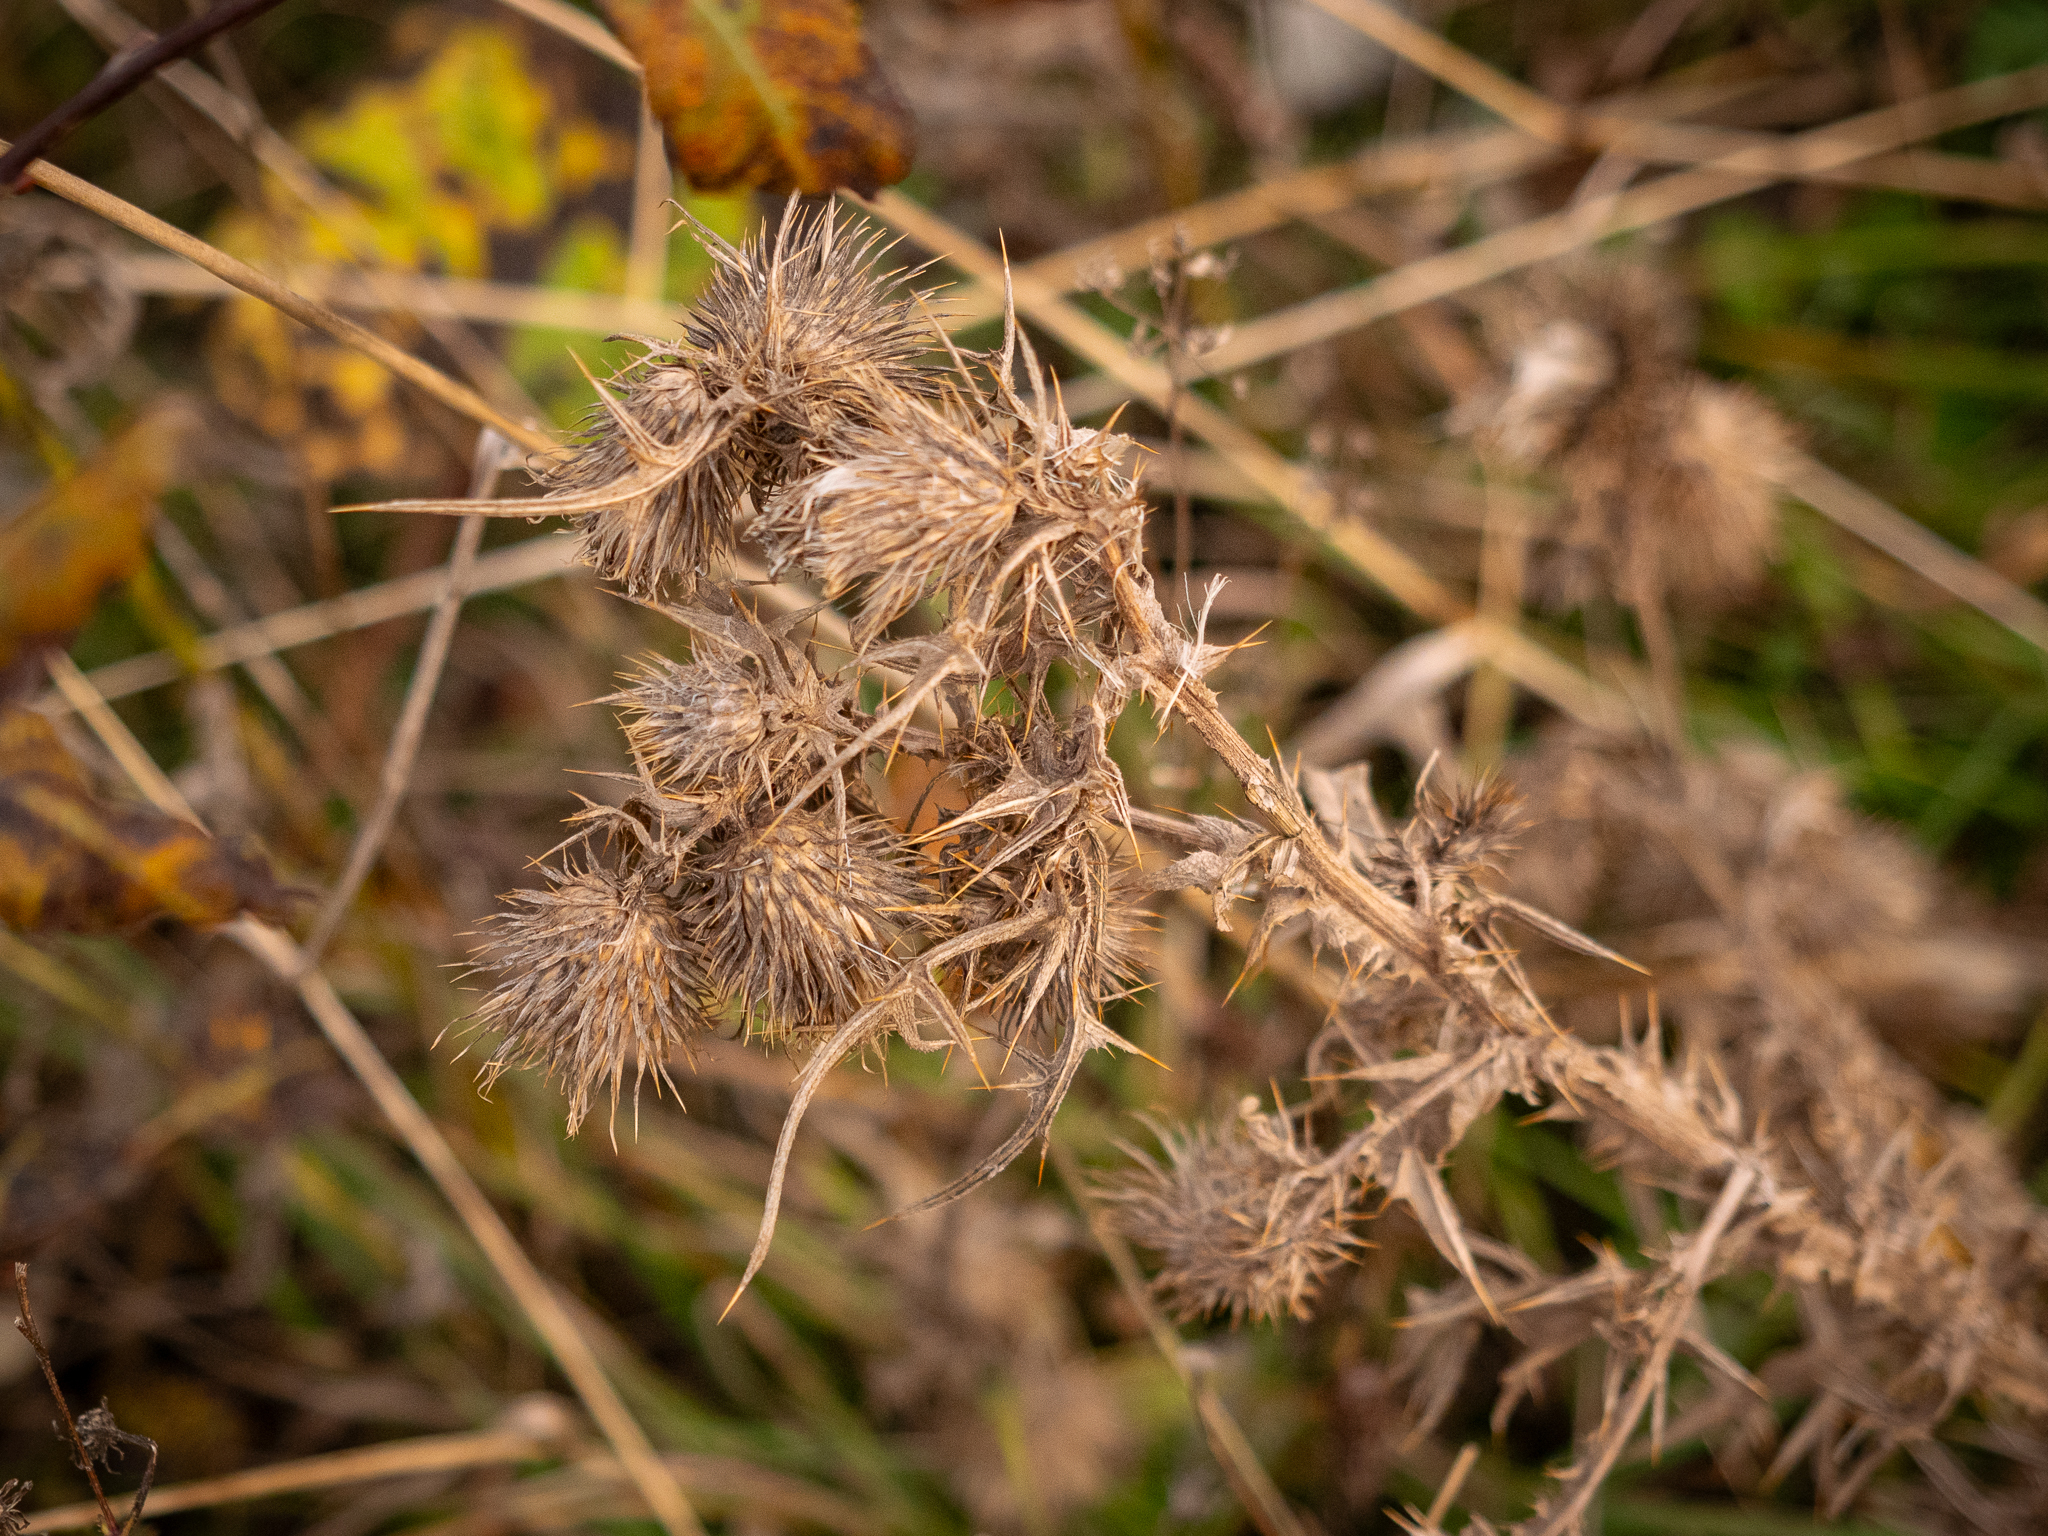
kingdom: Plantae
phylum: Tracheophyta
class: Magnoliopsida
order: Asterales
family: Asteraceae
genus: Cirsium
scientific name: Cirsium vulgare
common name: Bull thistle
